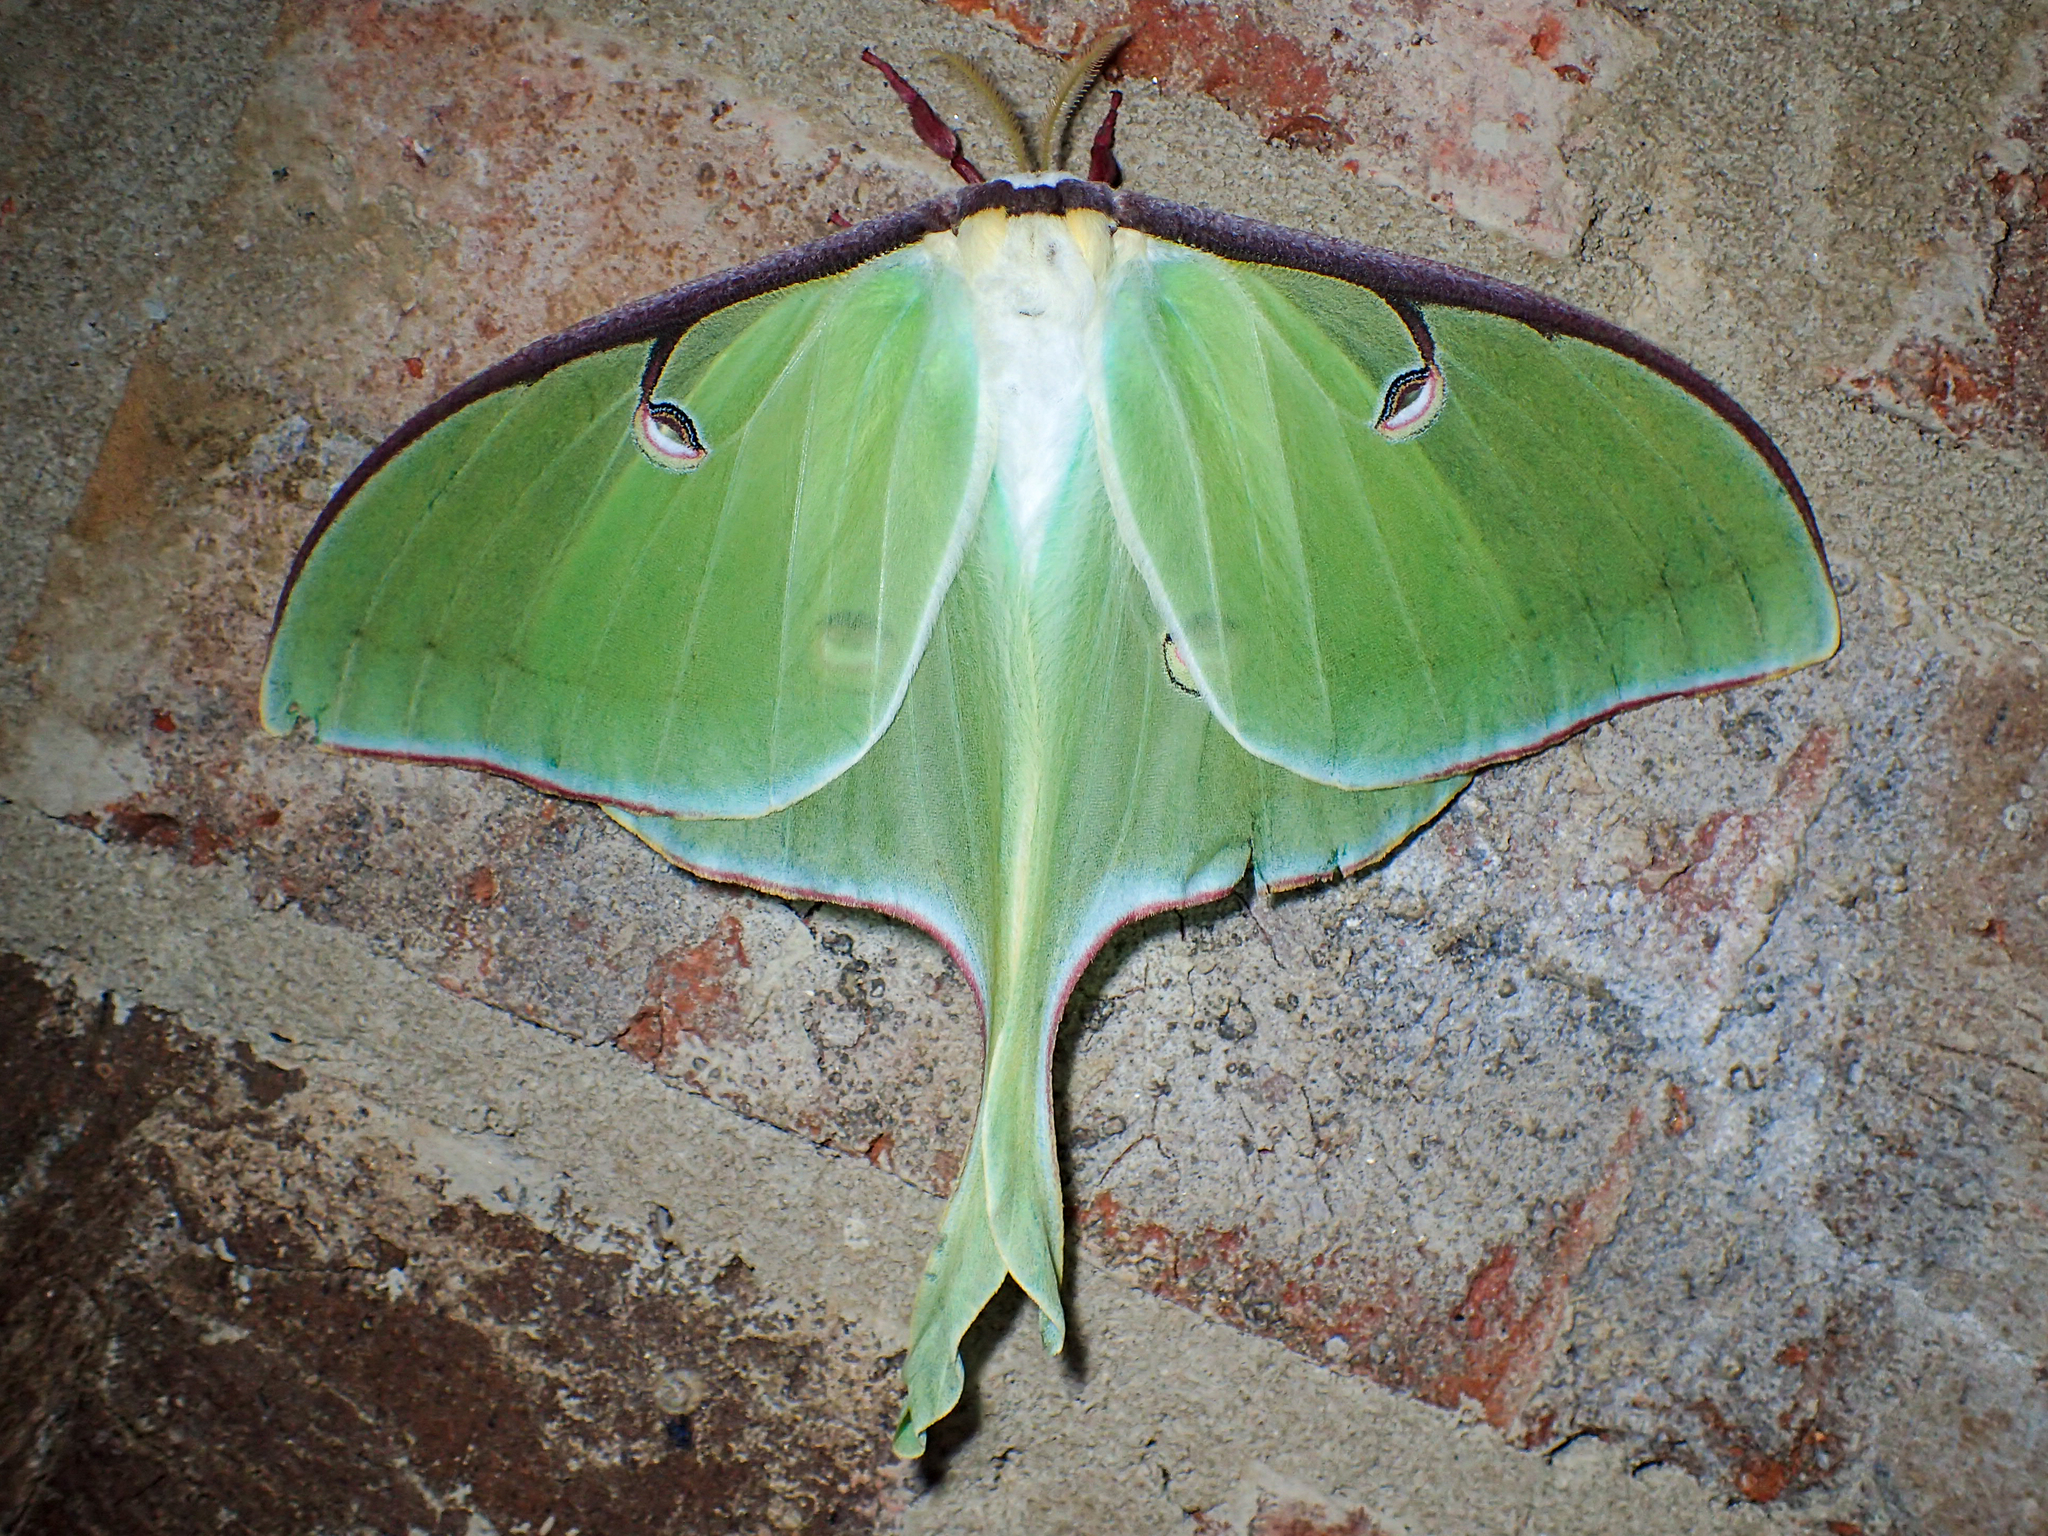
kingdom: Animalia
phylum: Arthropoda
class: Insecta
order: Lepidoptera
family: Saturniidae
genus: Actias
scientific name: Actias luna
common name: Luna moth
